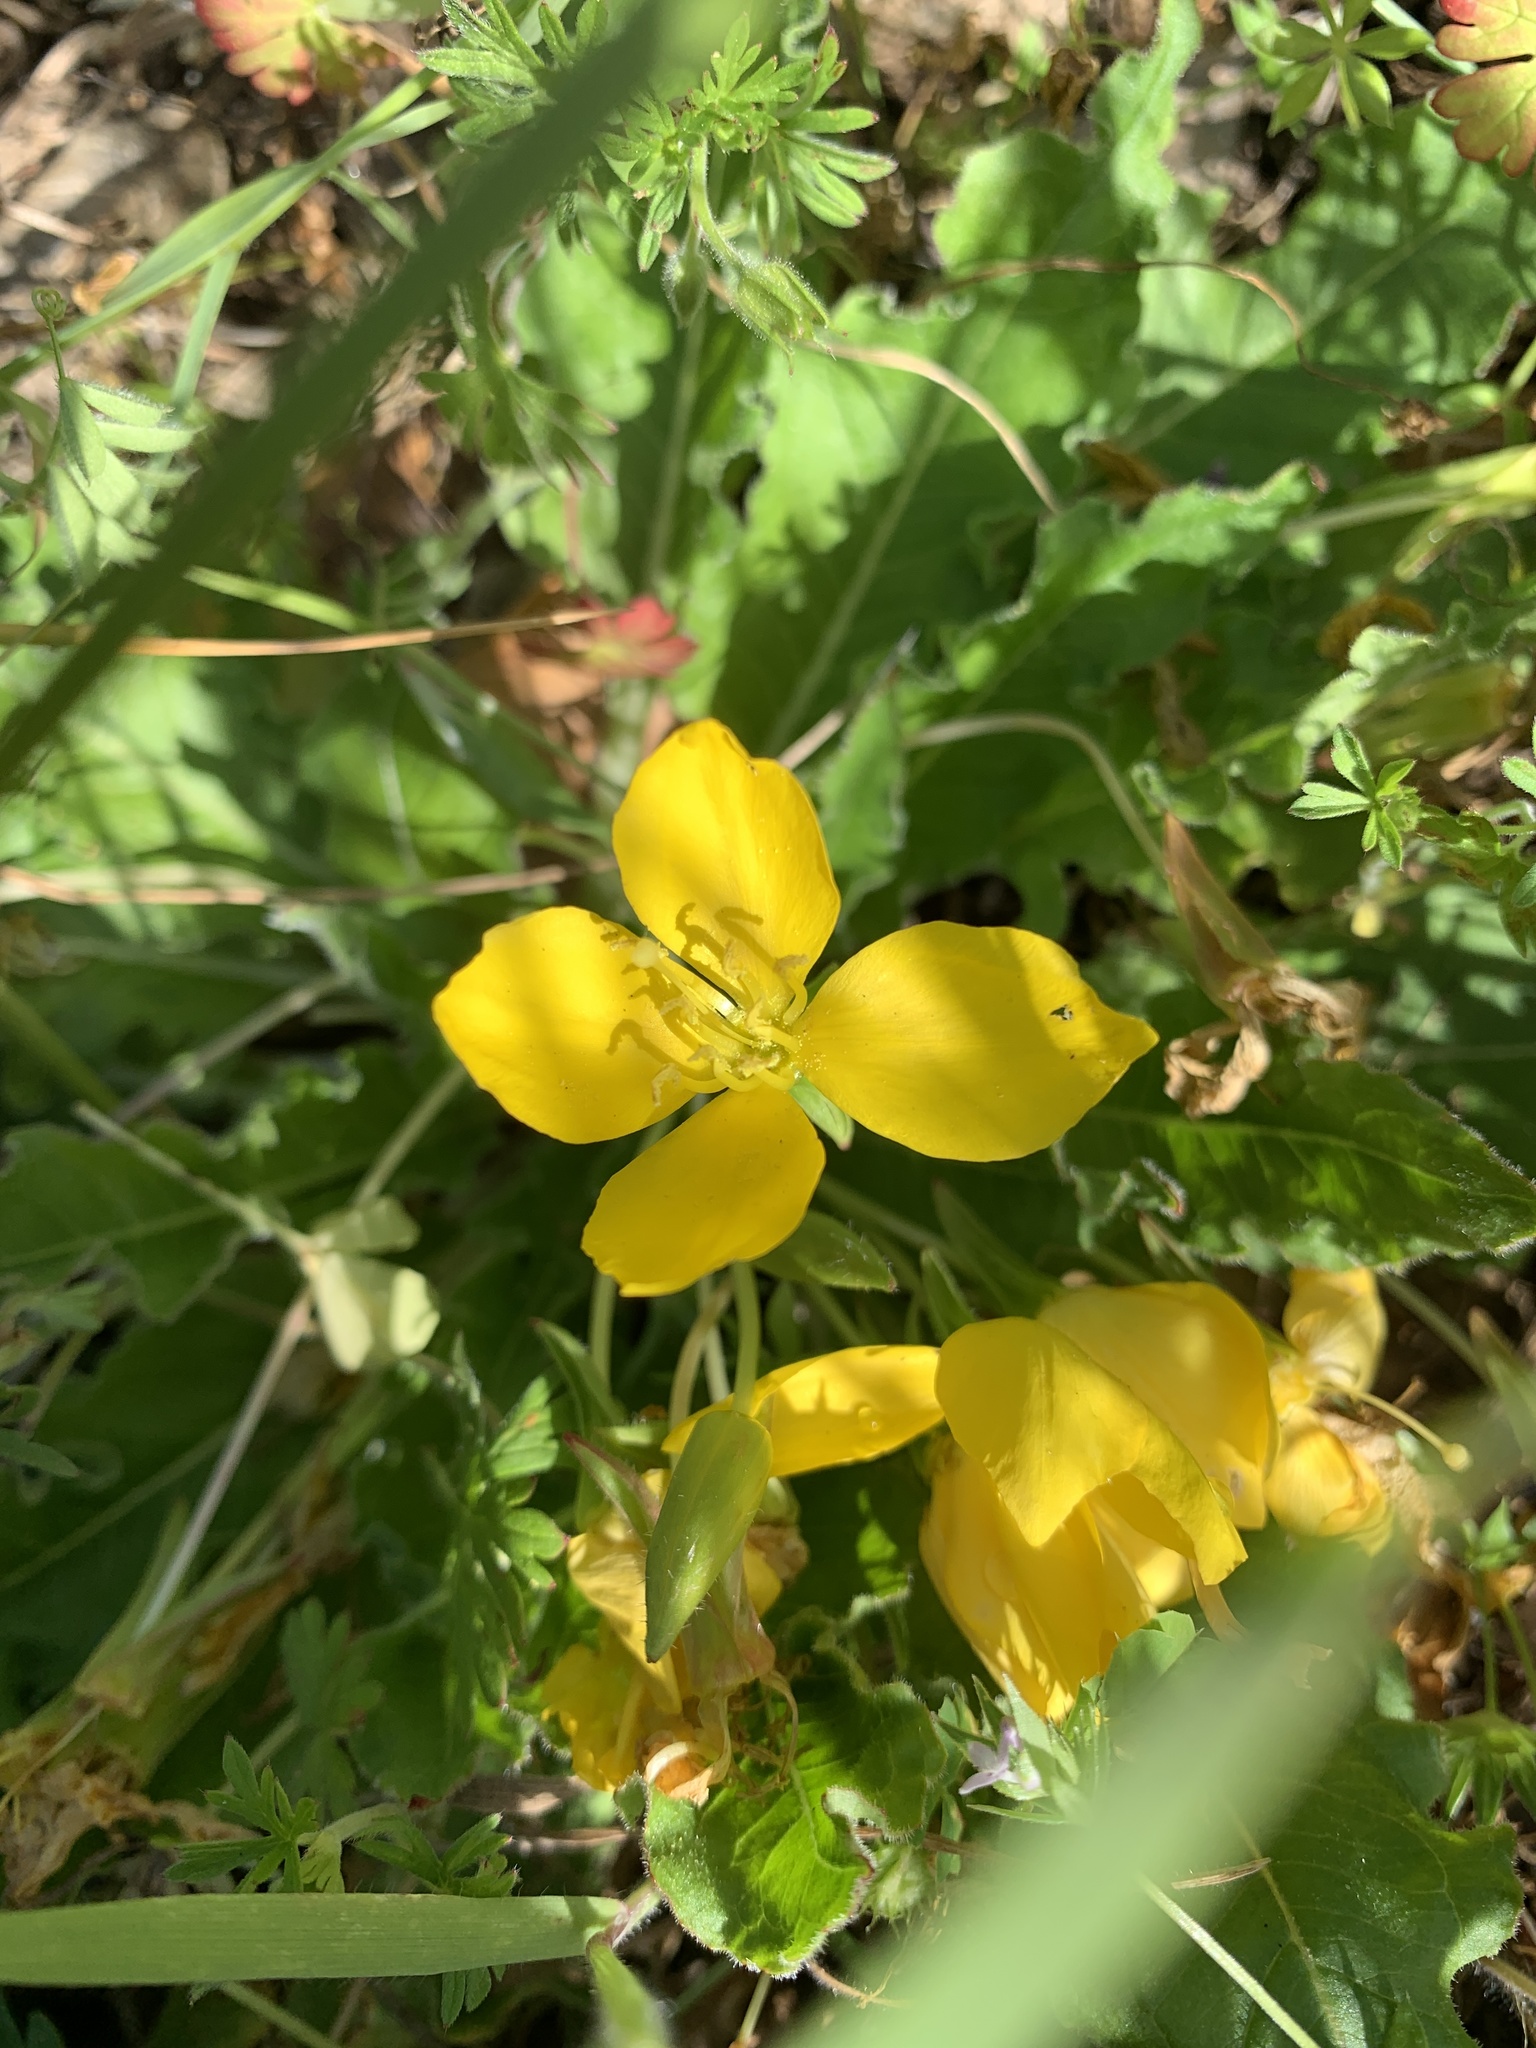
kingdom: Plantae
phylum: Tracheophyta
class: Magnoliopsida
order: Myrtales
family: Onagraceae
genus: Taraxia
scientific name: Taraxia ovata
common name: Goldeneggs
